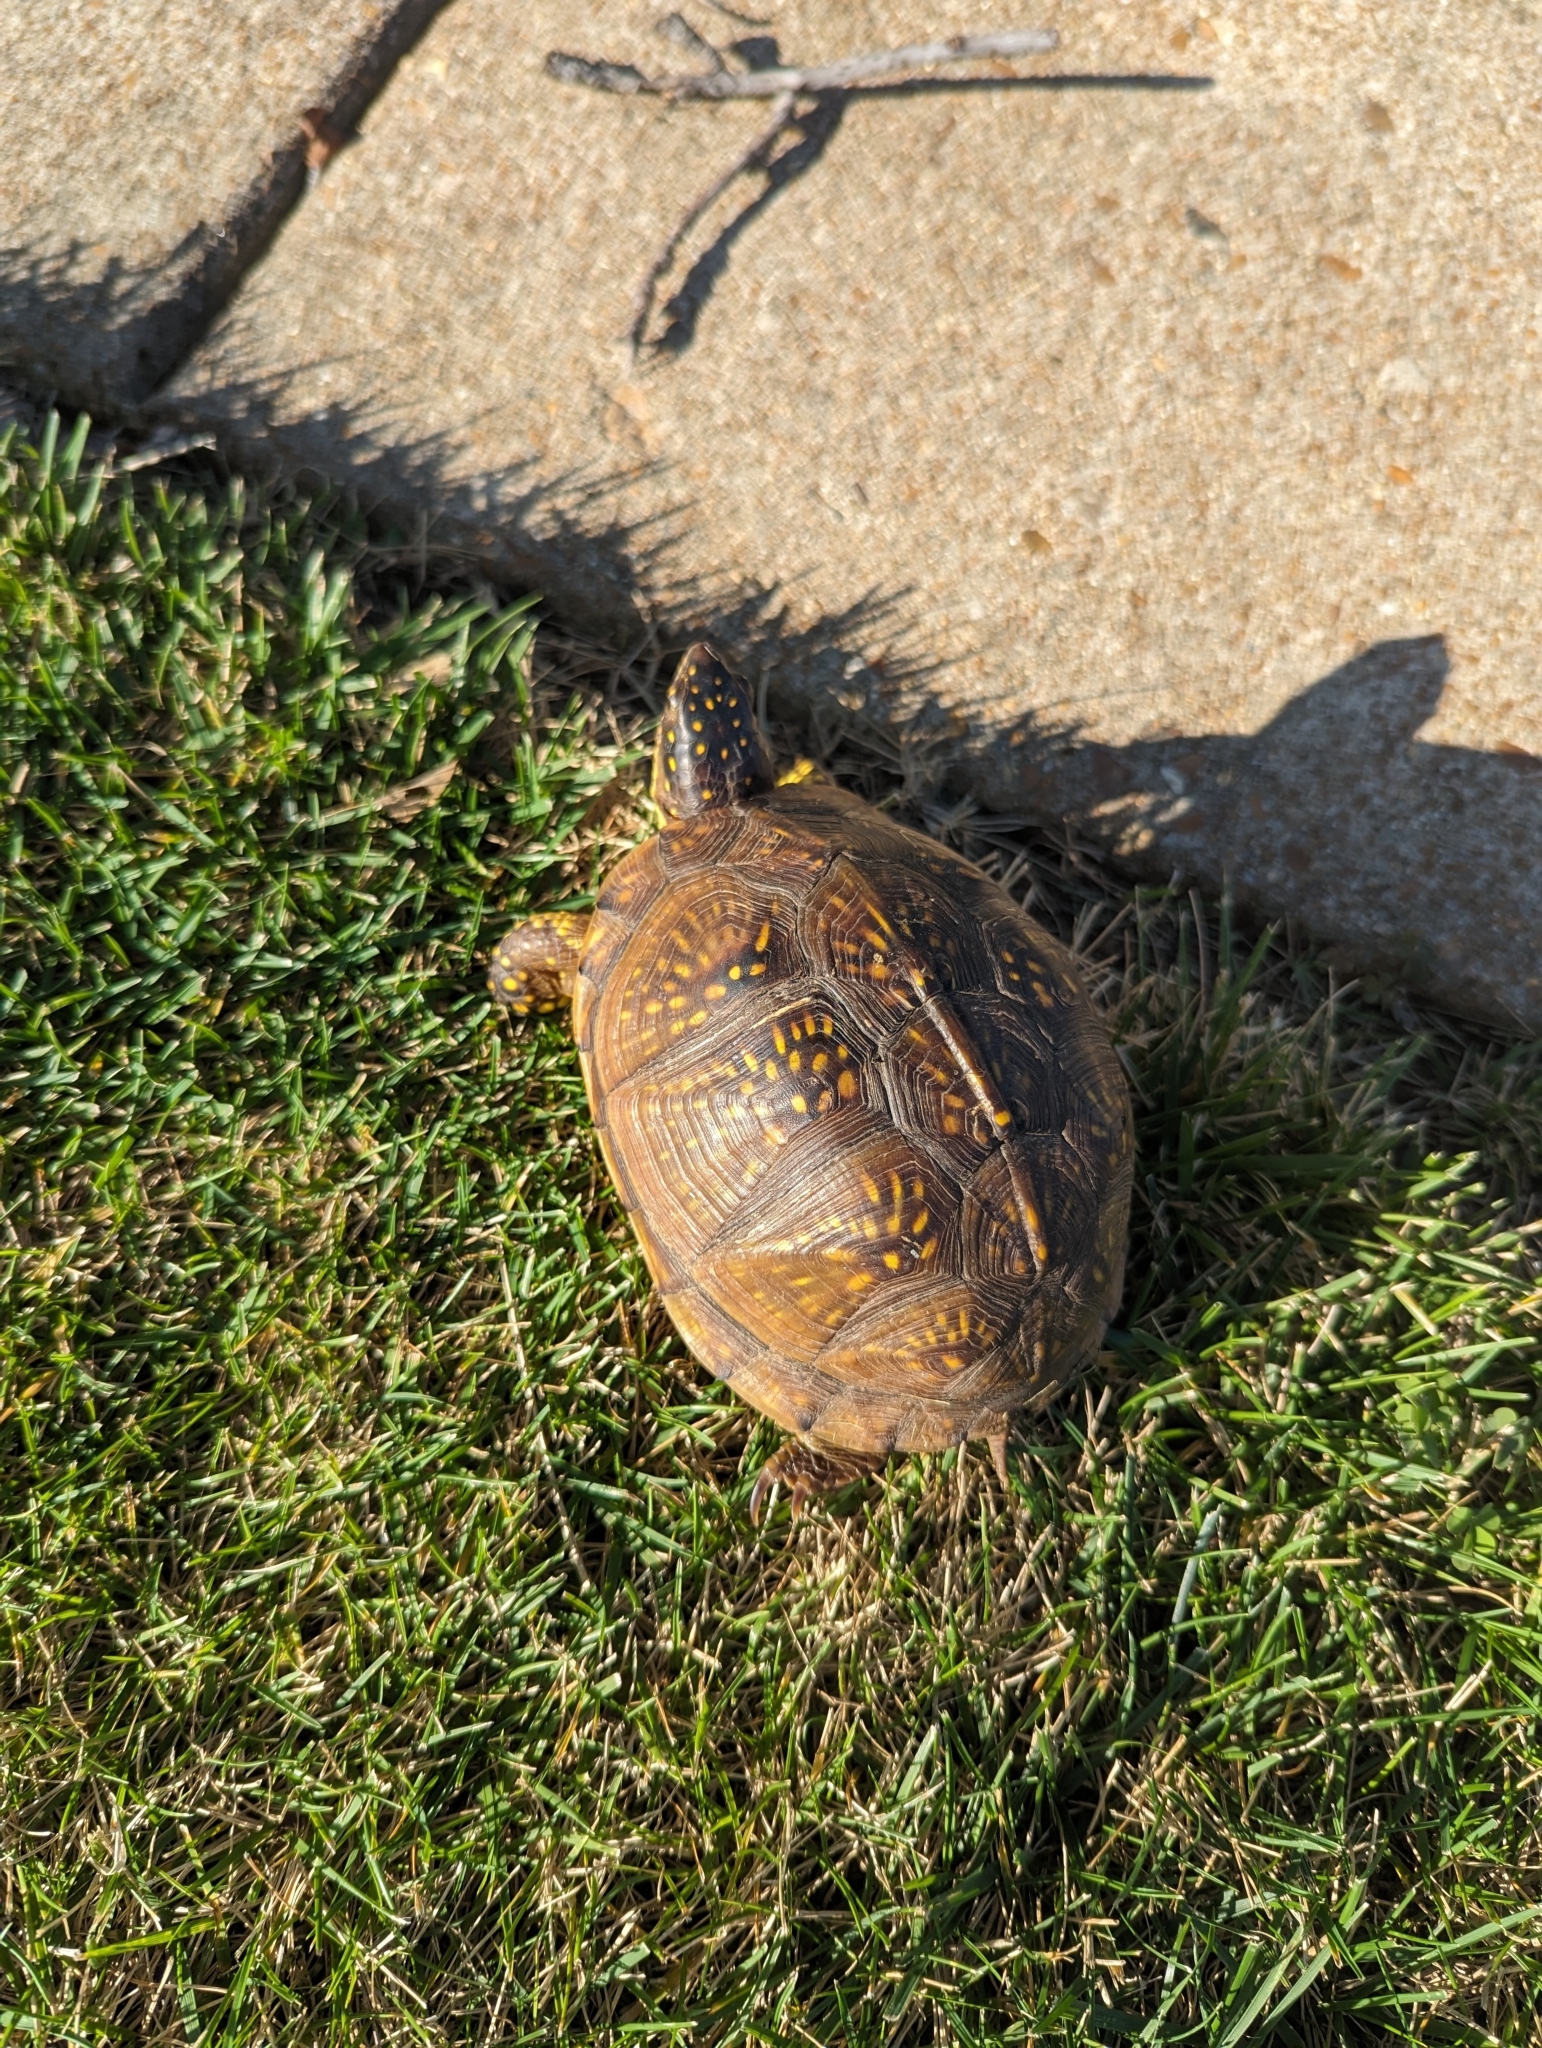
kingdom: Animalia
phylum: Chordata
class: Testudines
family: Emydidae
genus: Terrapene
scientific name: Terrapene carolina
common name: Common box turtle
